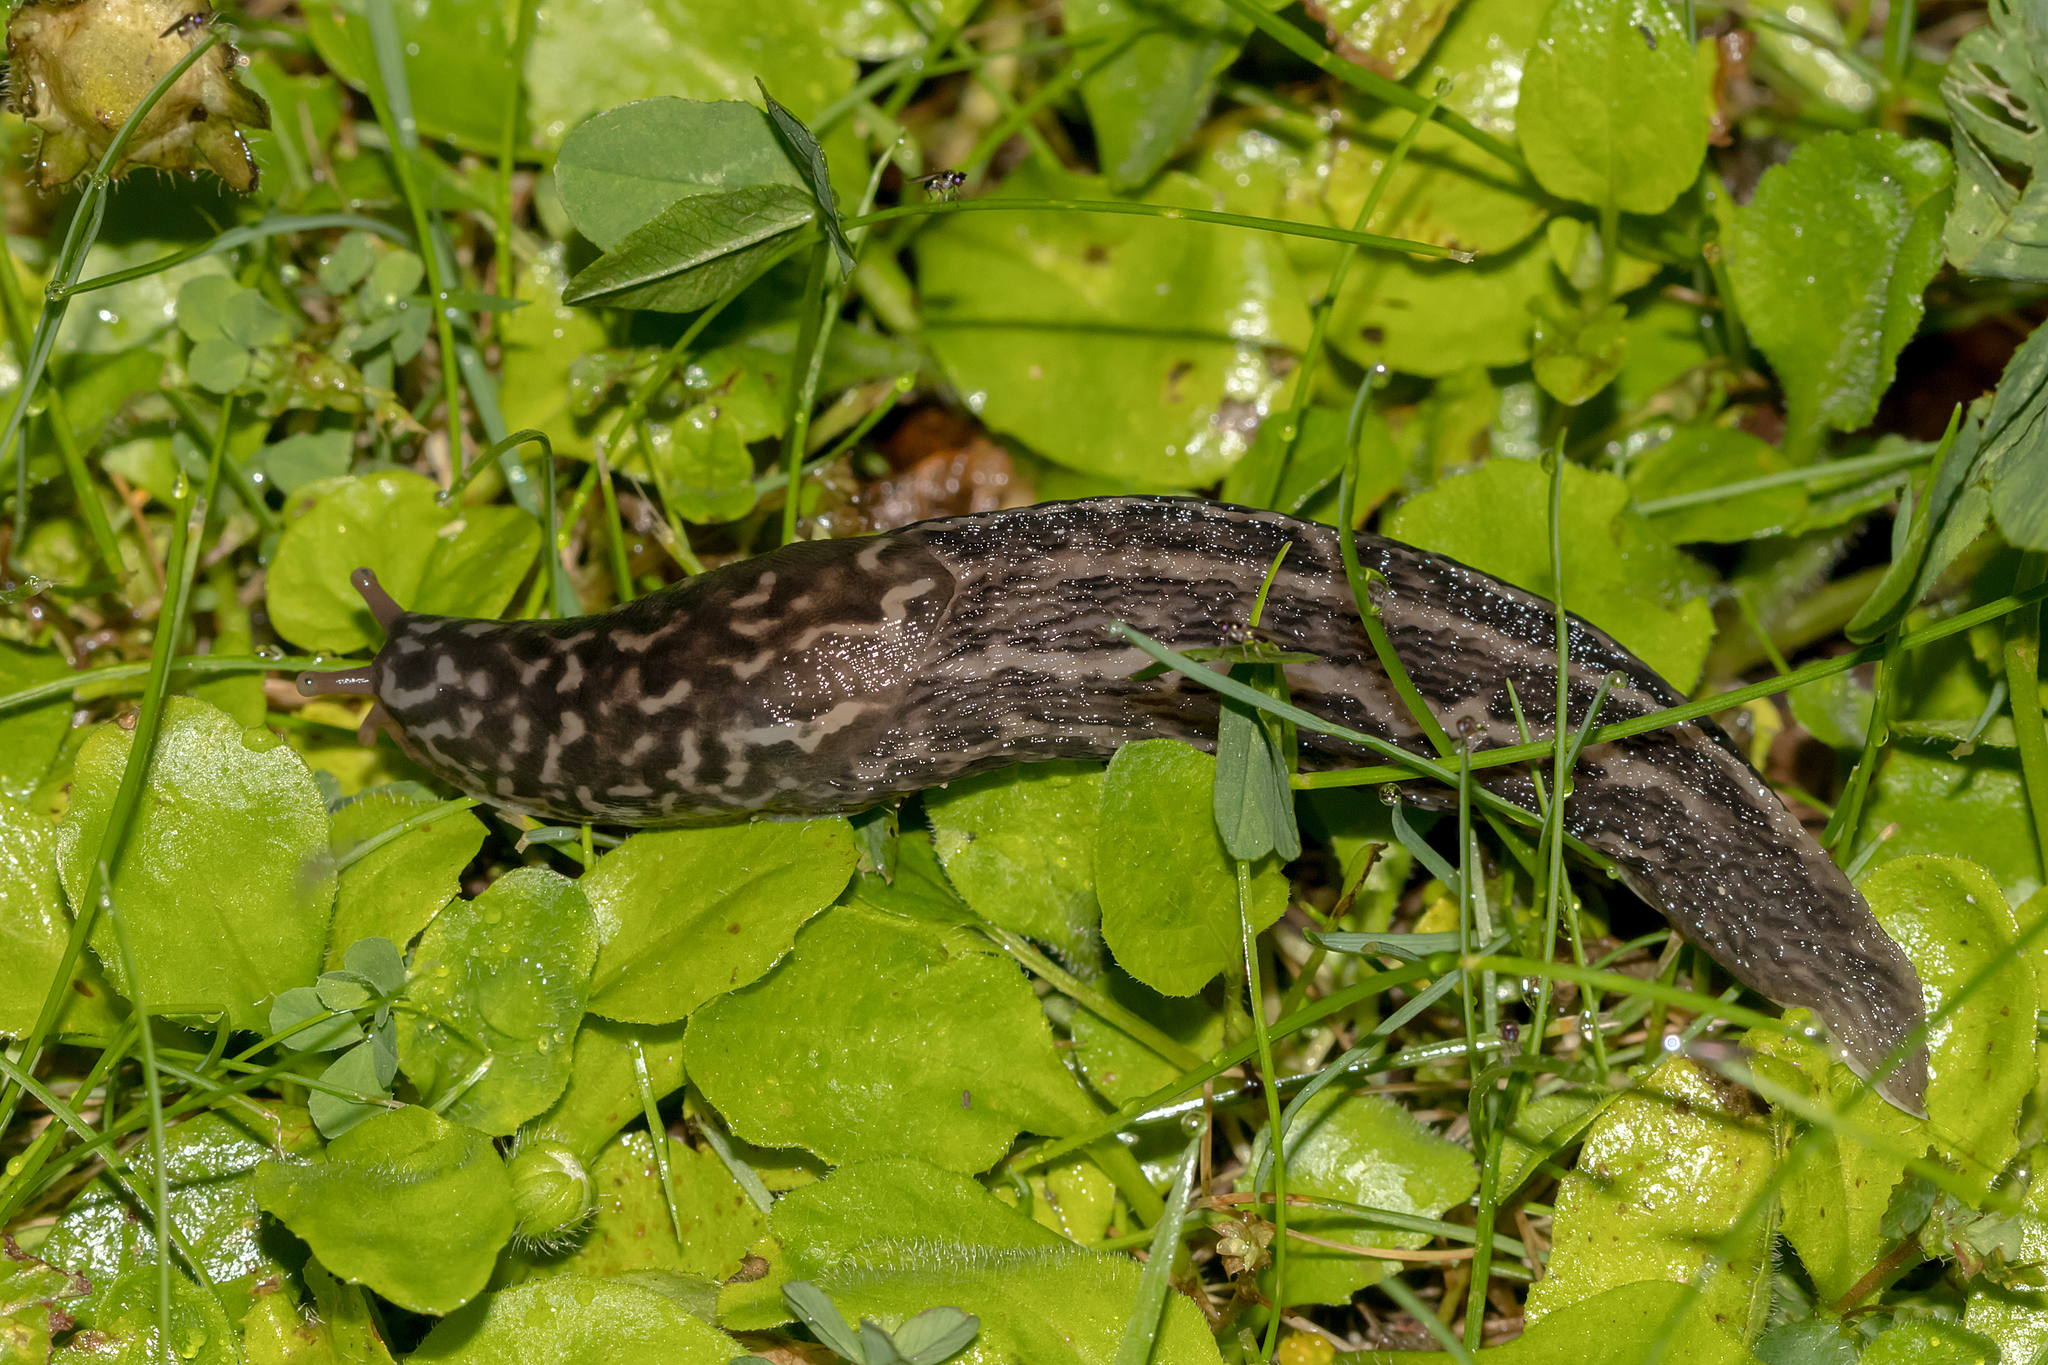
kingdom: Animalia
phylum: Mollusca
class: Gastropoda
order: Stylommatophora
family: Limacidae
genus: Limax
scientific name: Limax maximus
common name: Great grey slug
